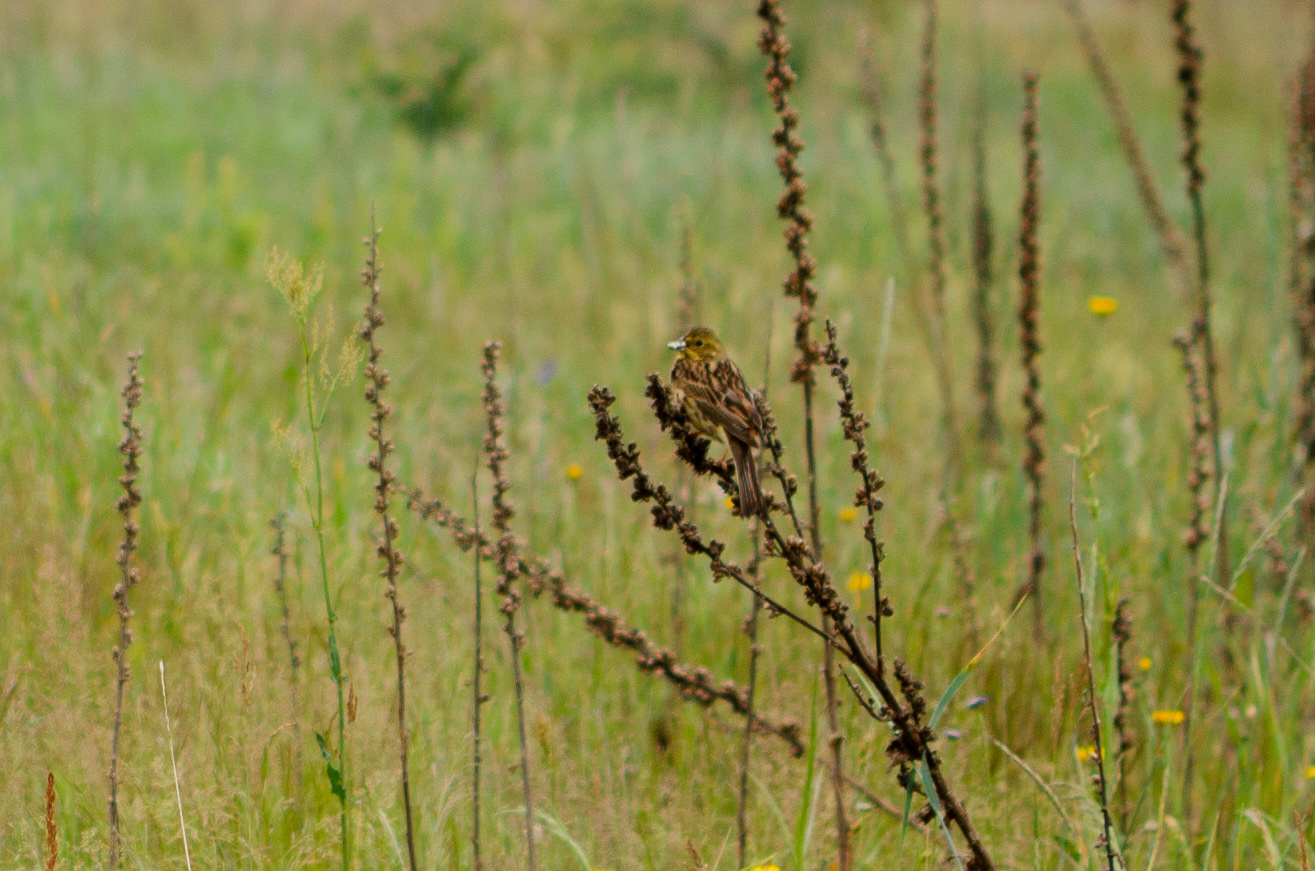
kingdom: Animalia
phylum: Chordata
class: Aves
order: Passeriformes
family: Emberizidae
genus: Emberiza
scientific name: Emberiza citrinella
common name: Yellowhammer
